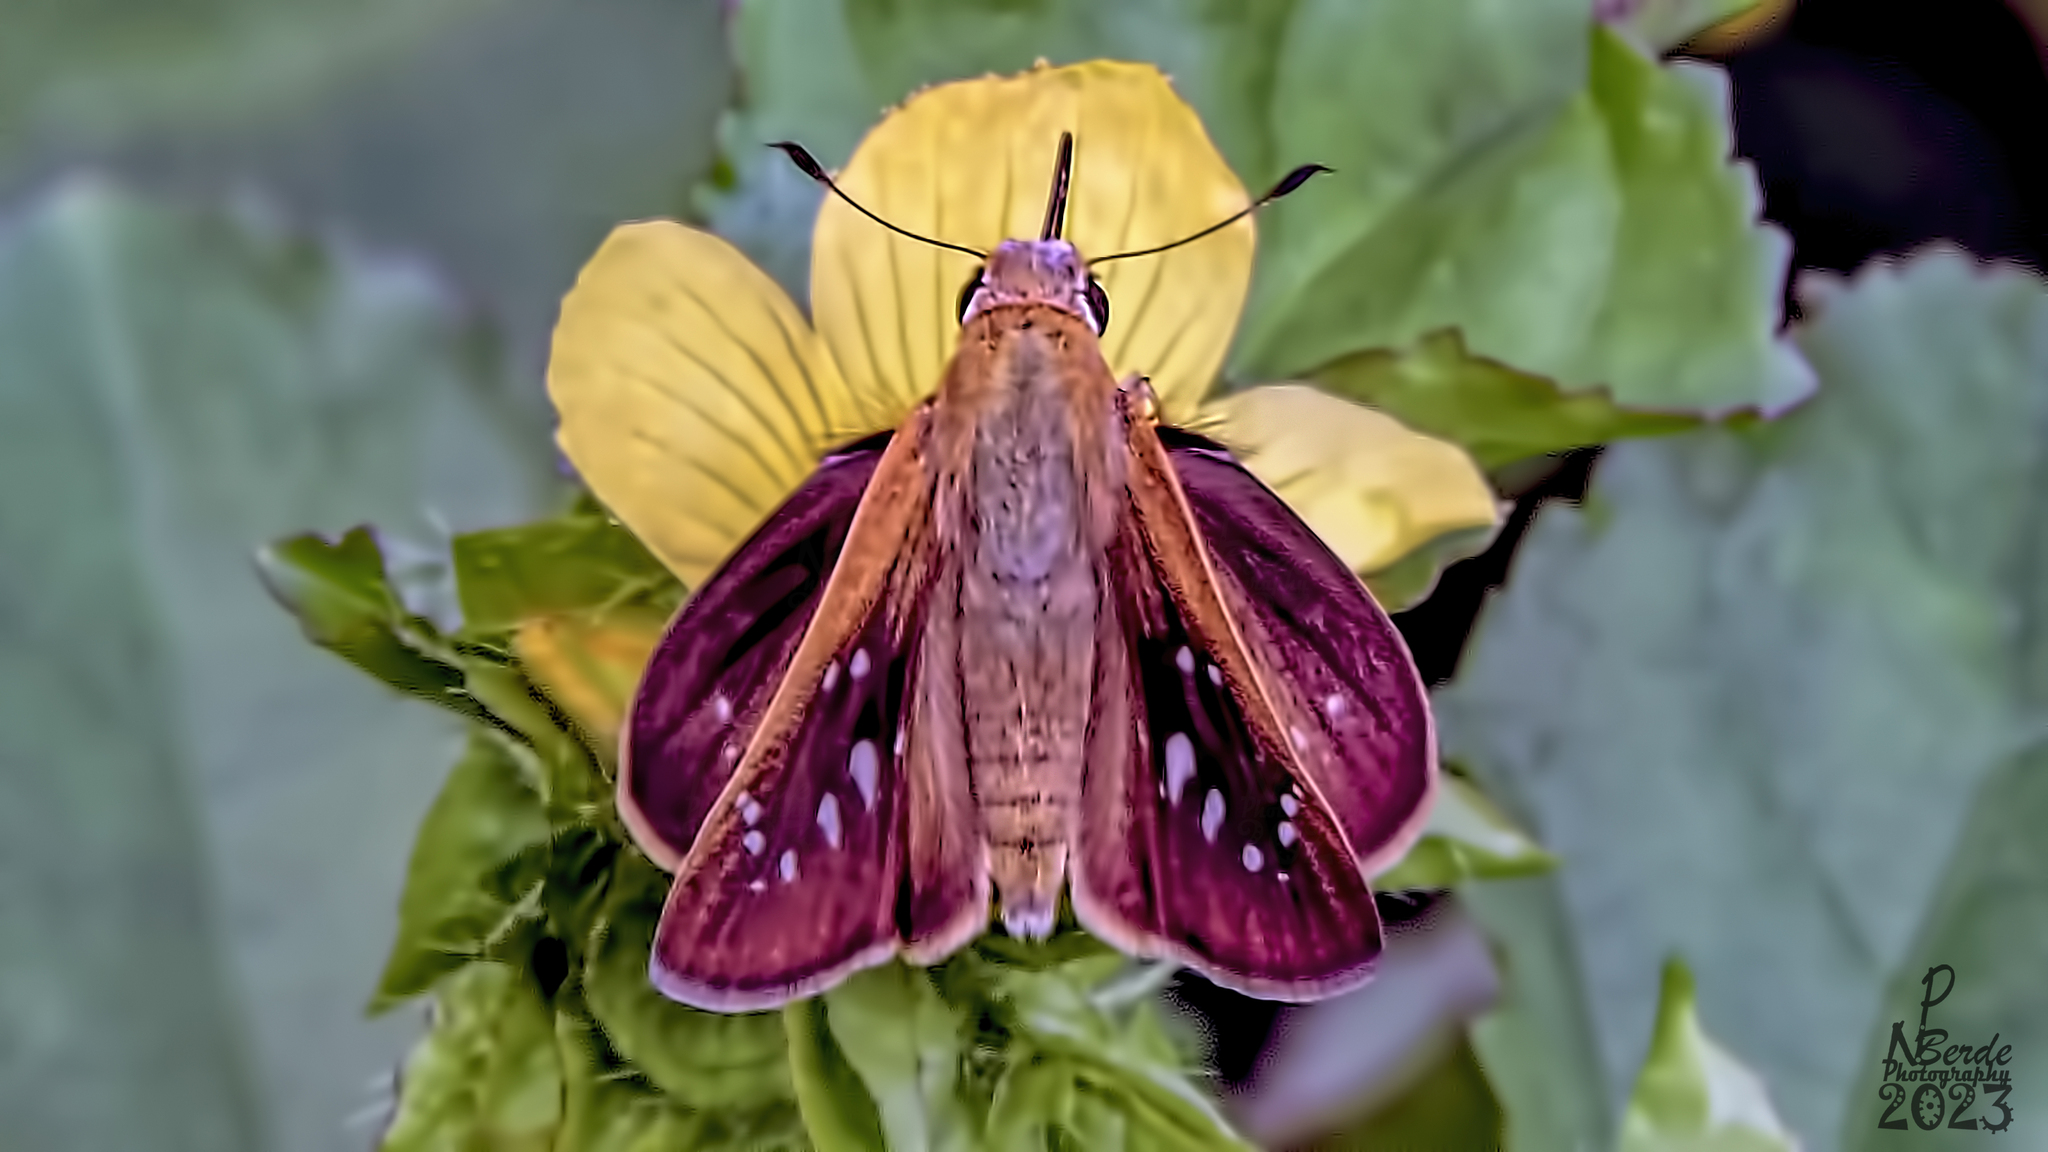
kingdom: Animalia
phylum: Arthropoda
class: Insecta
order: Lepidoptera
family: Hesperiidae
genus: Pelopidas
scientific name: Pelopidas mathias
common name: Black-branded swift
